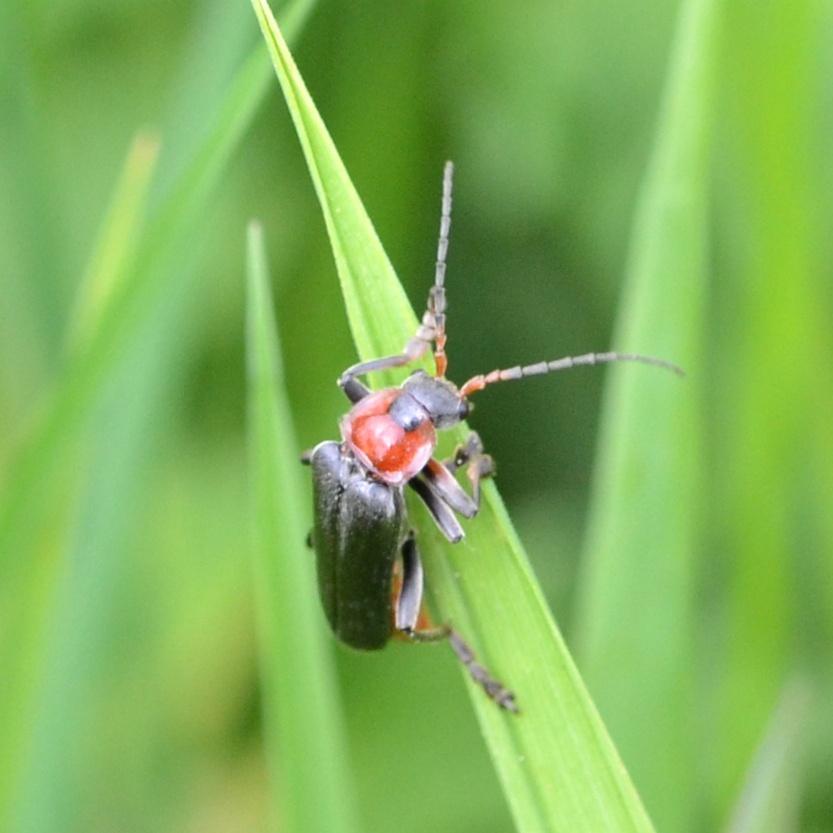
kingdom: Animalia
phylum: Arthropoda
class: Insecta
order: Coleoptera
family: Cantharidae
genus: Cantharis
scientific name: Cantharis fusca
